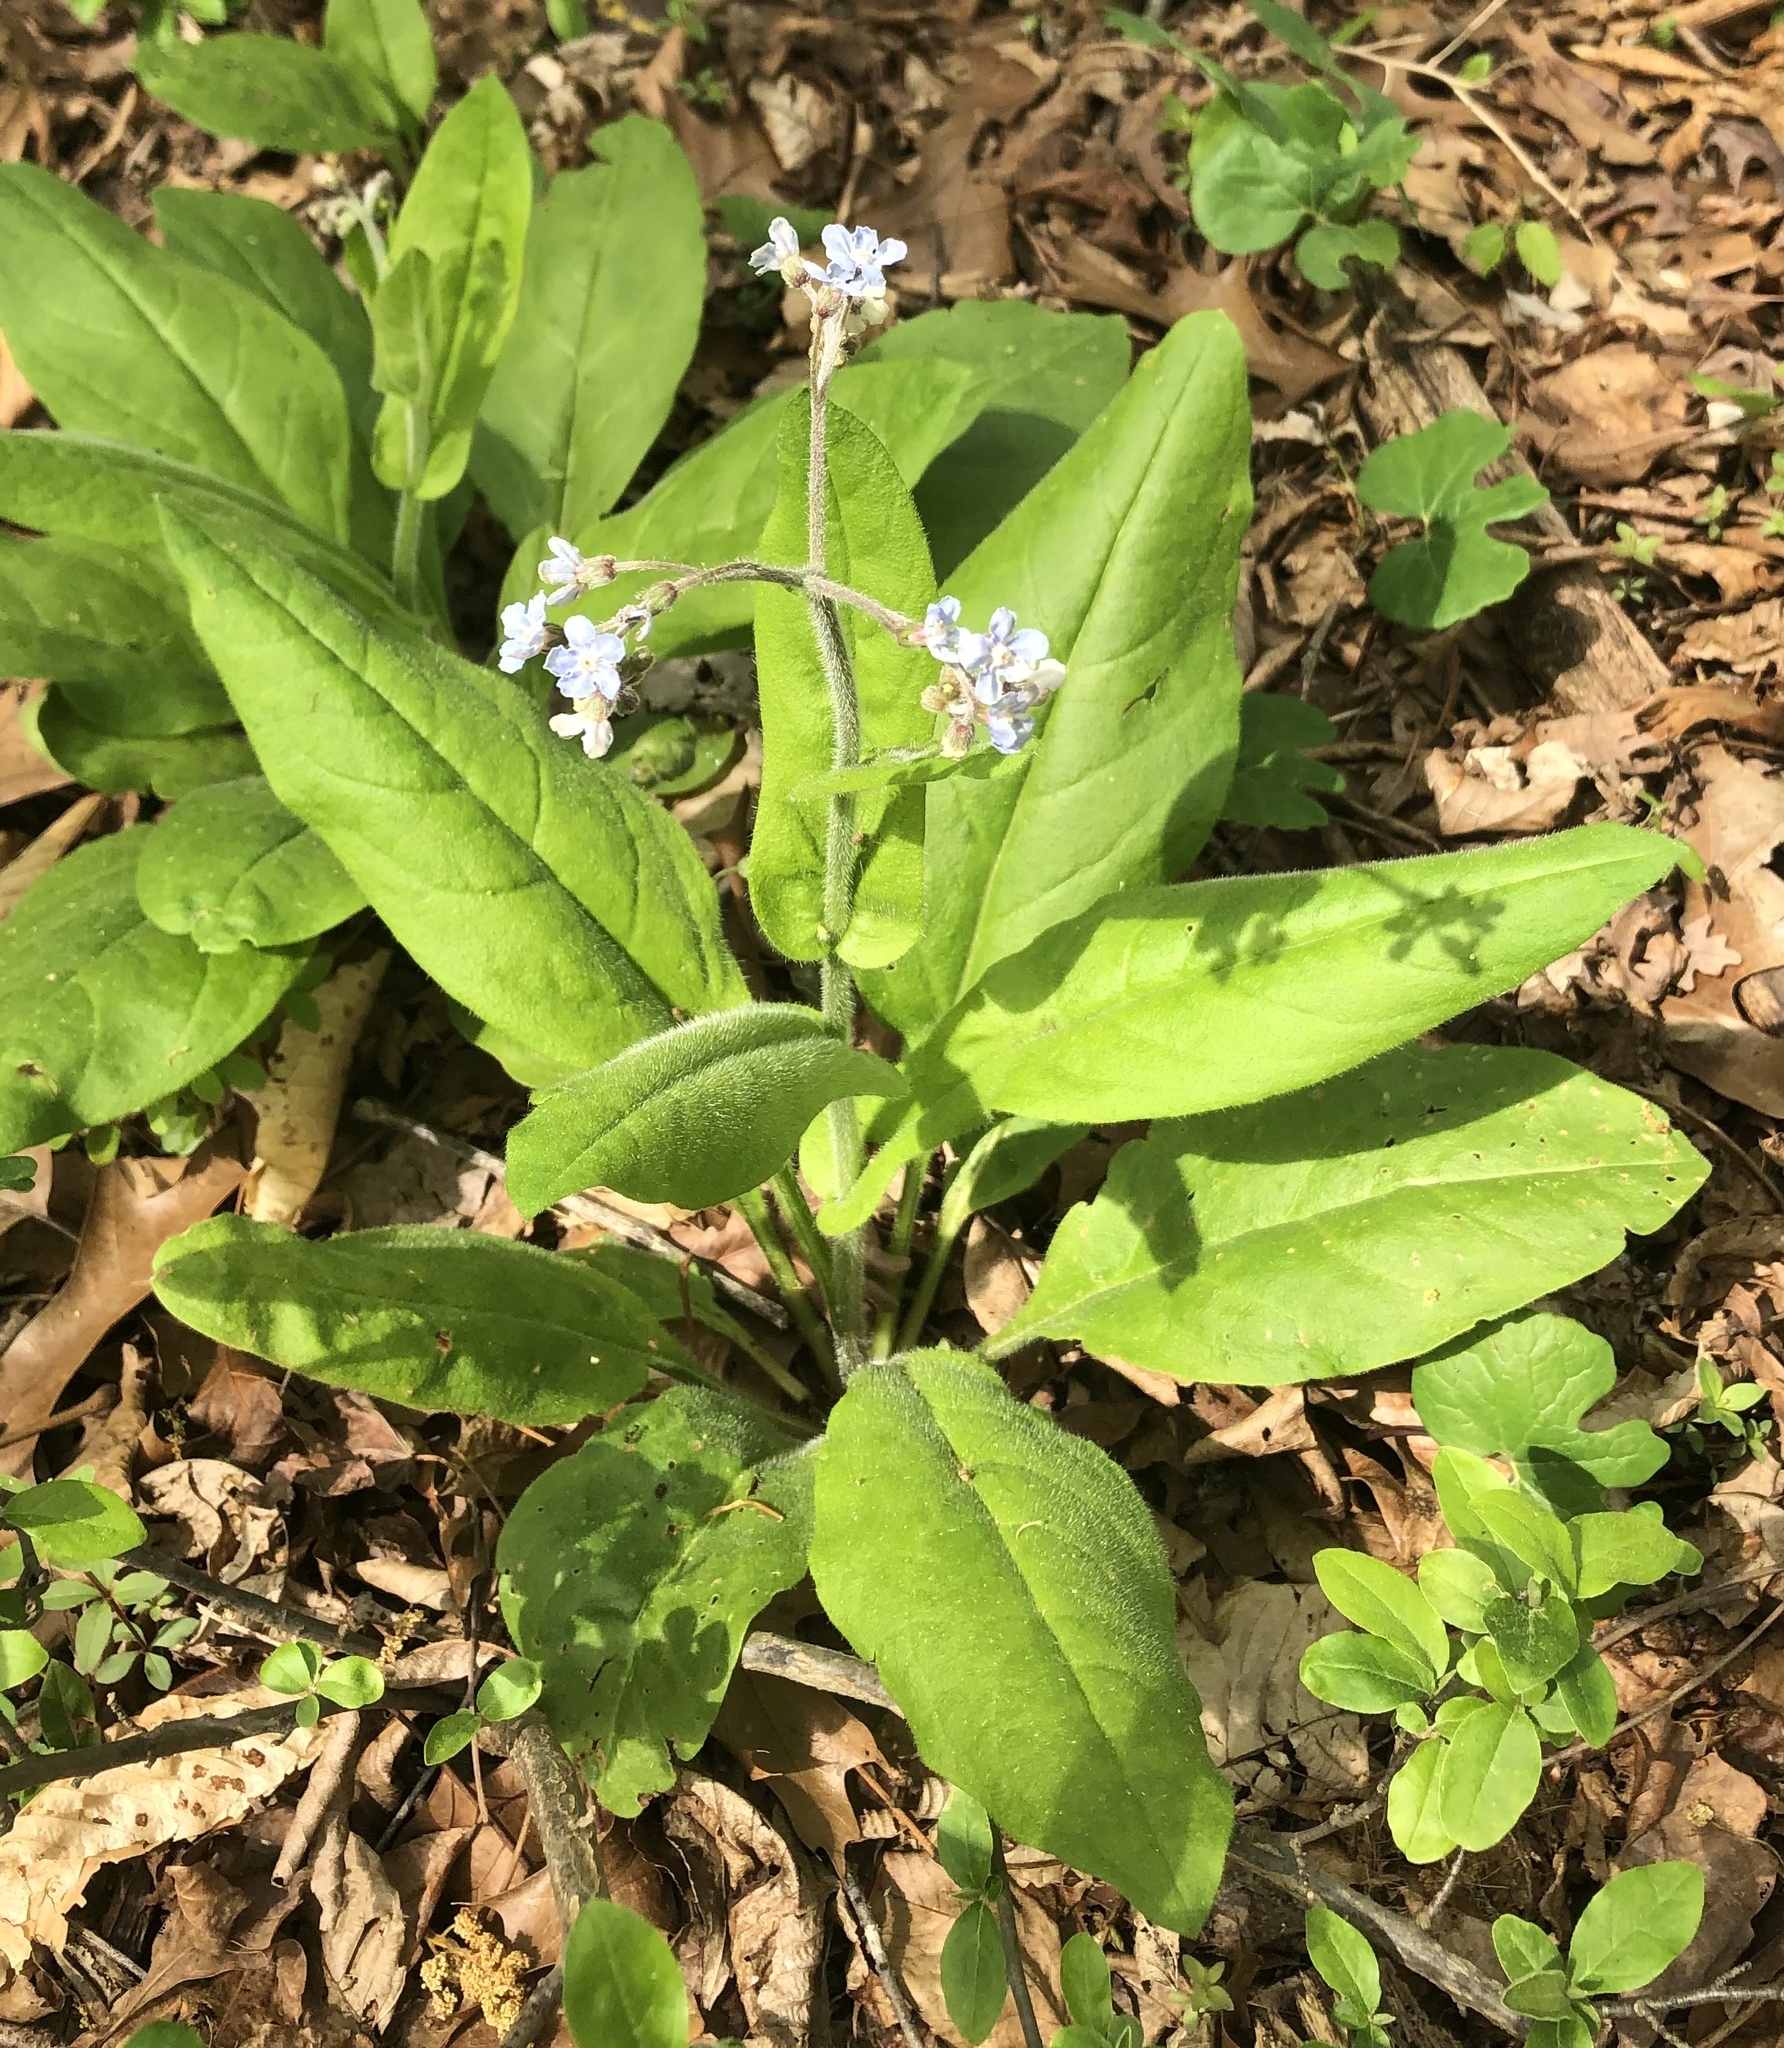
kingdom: Plantae
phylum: Tracheophyta
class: Magnoliopsida
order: Boraginales
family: Boraginaceae
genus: Andersonglossum
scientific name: Andersonglossum virginianum
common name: Wild comfrey
